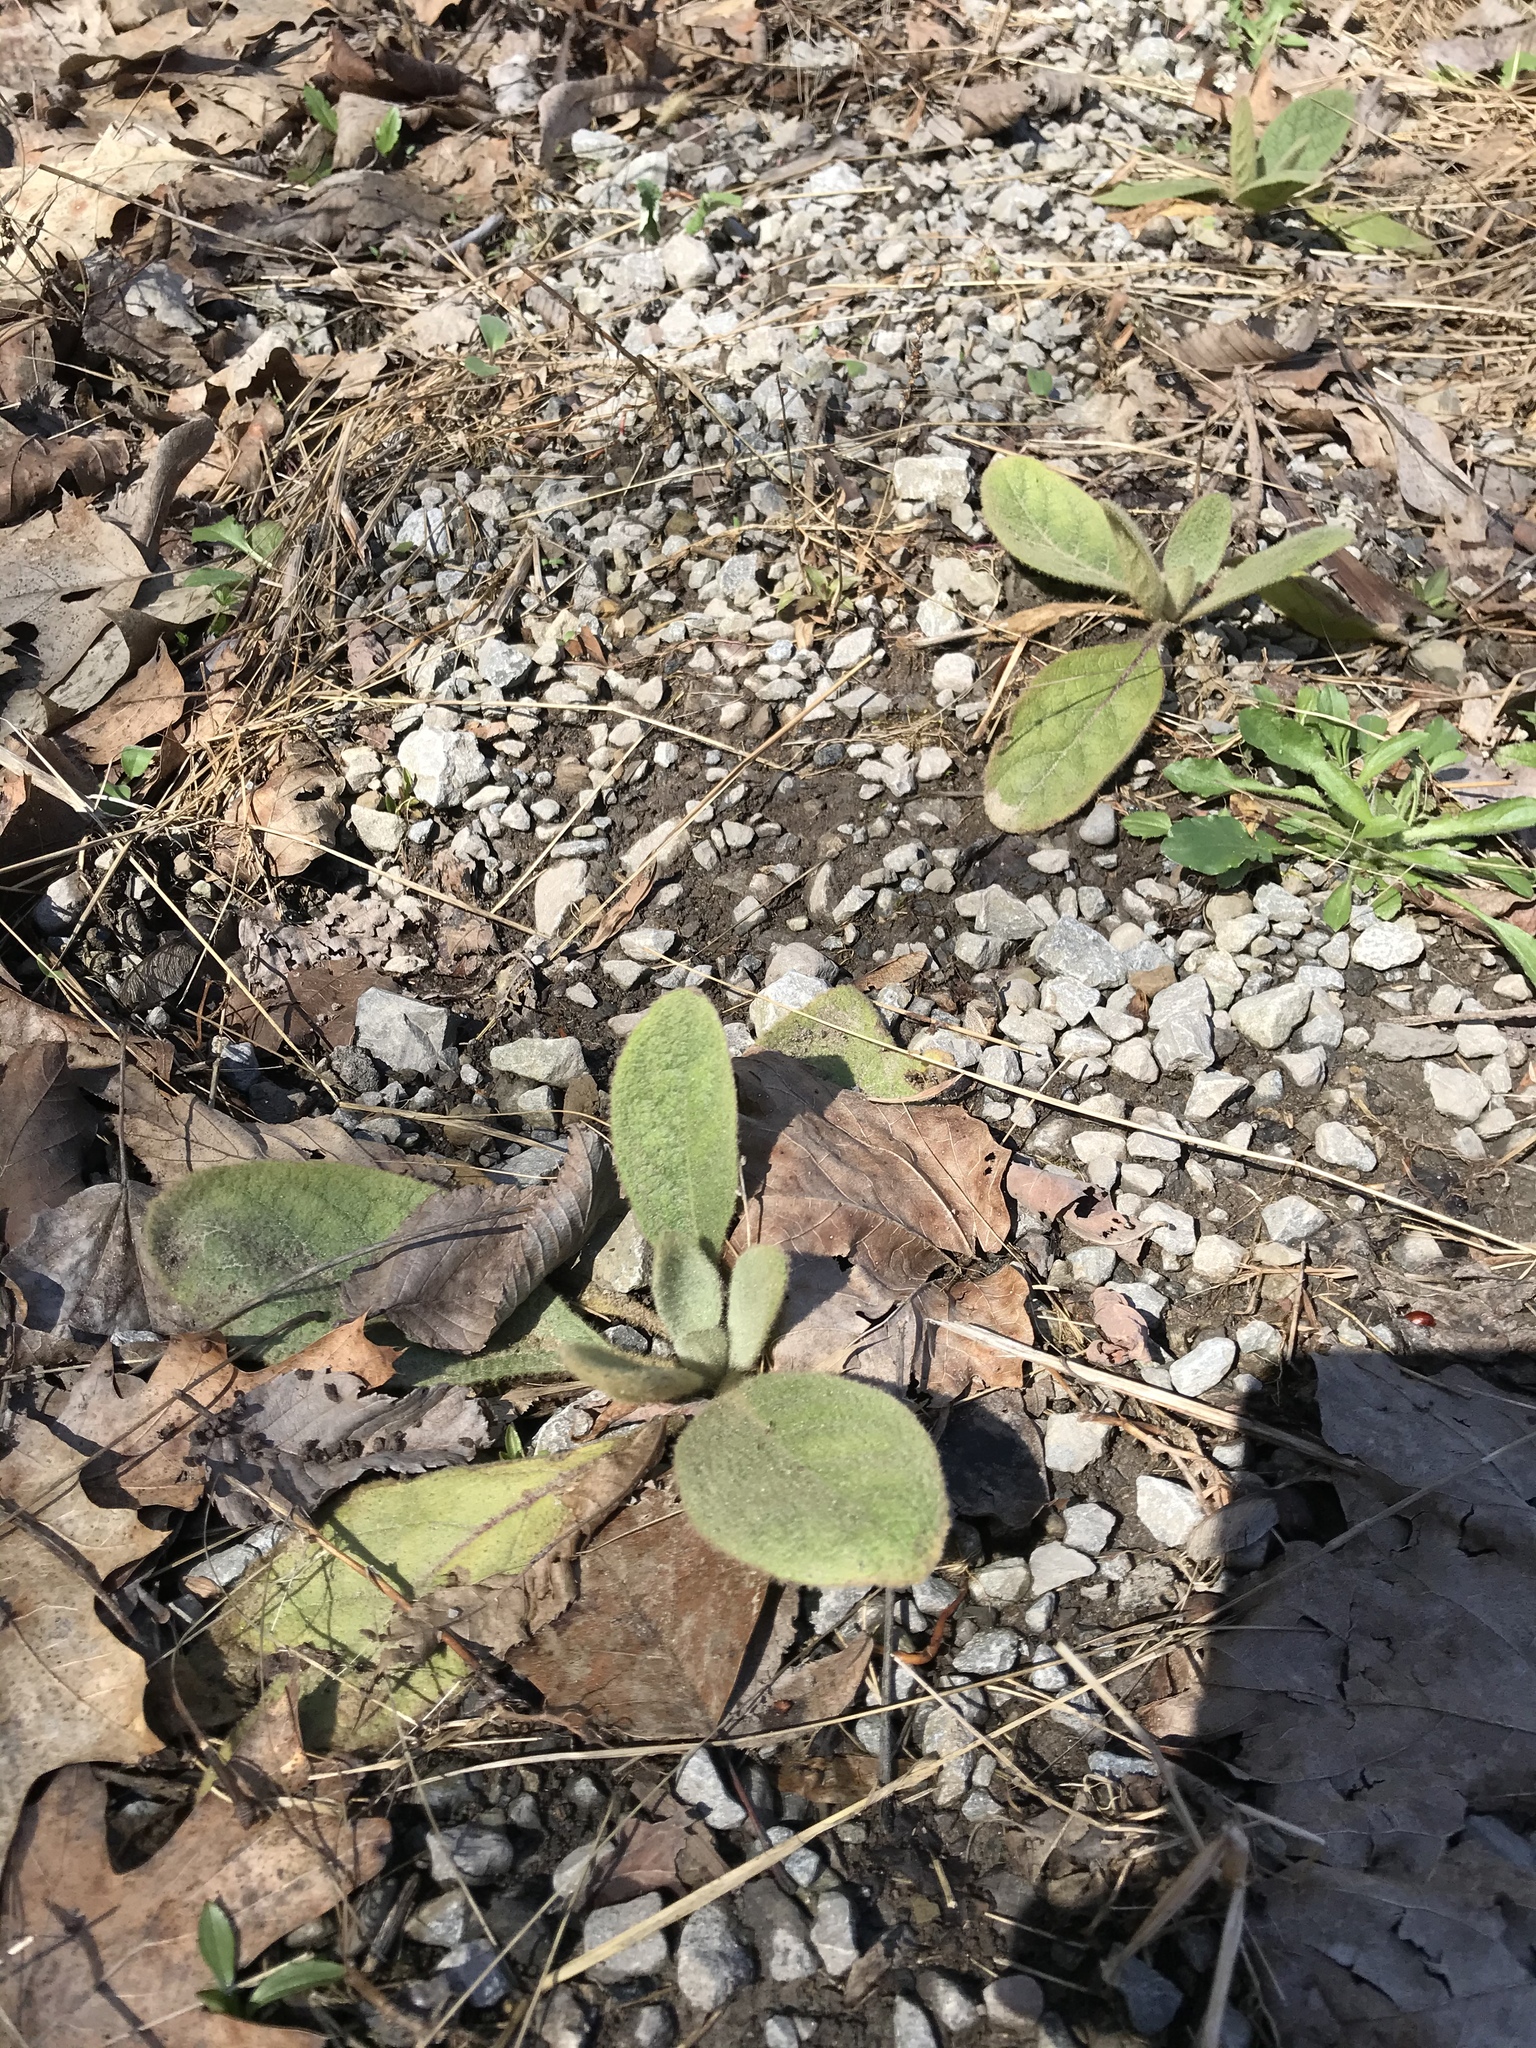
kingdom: Plantae
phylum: Tracheophyta
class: Magnoliopsida
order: Lamiales
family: Scrophulariaceae
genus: Verbascum
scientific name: Verbascum thapsus
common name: Common mullein
